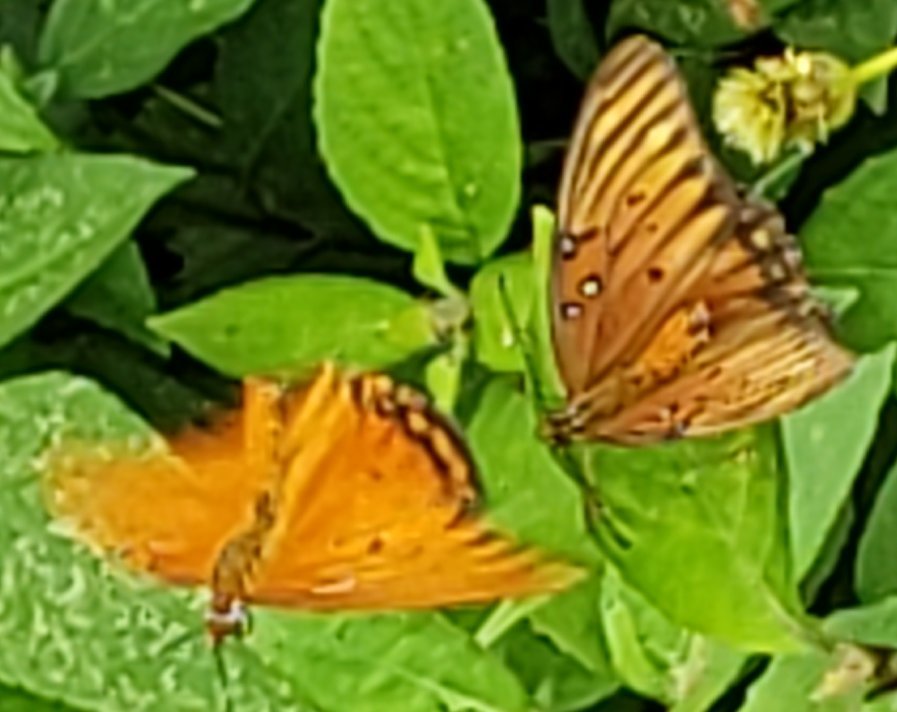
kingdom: Animalia
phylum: Arthropoda
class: Insecta
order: Lepidoptera
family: Nymphalidae
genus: Dione
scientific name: Dione vanillae
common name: Gulf fritillary
